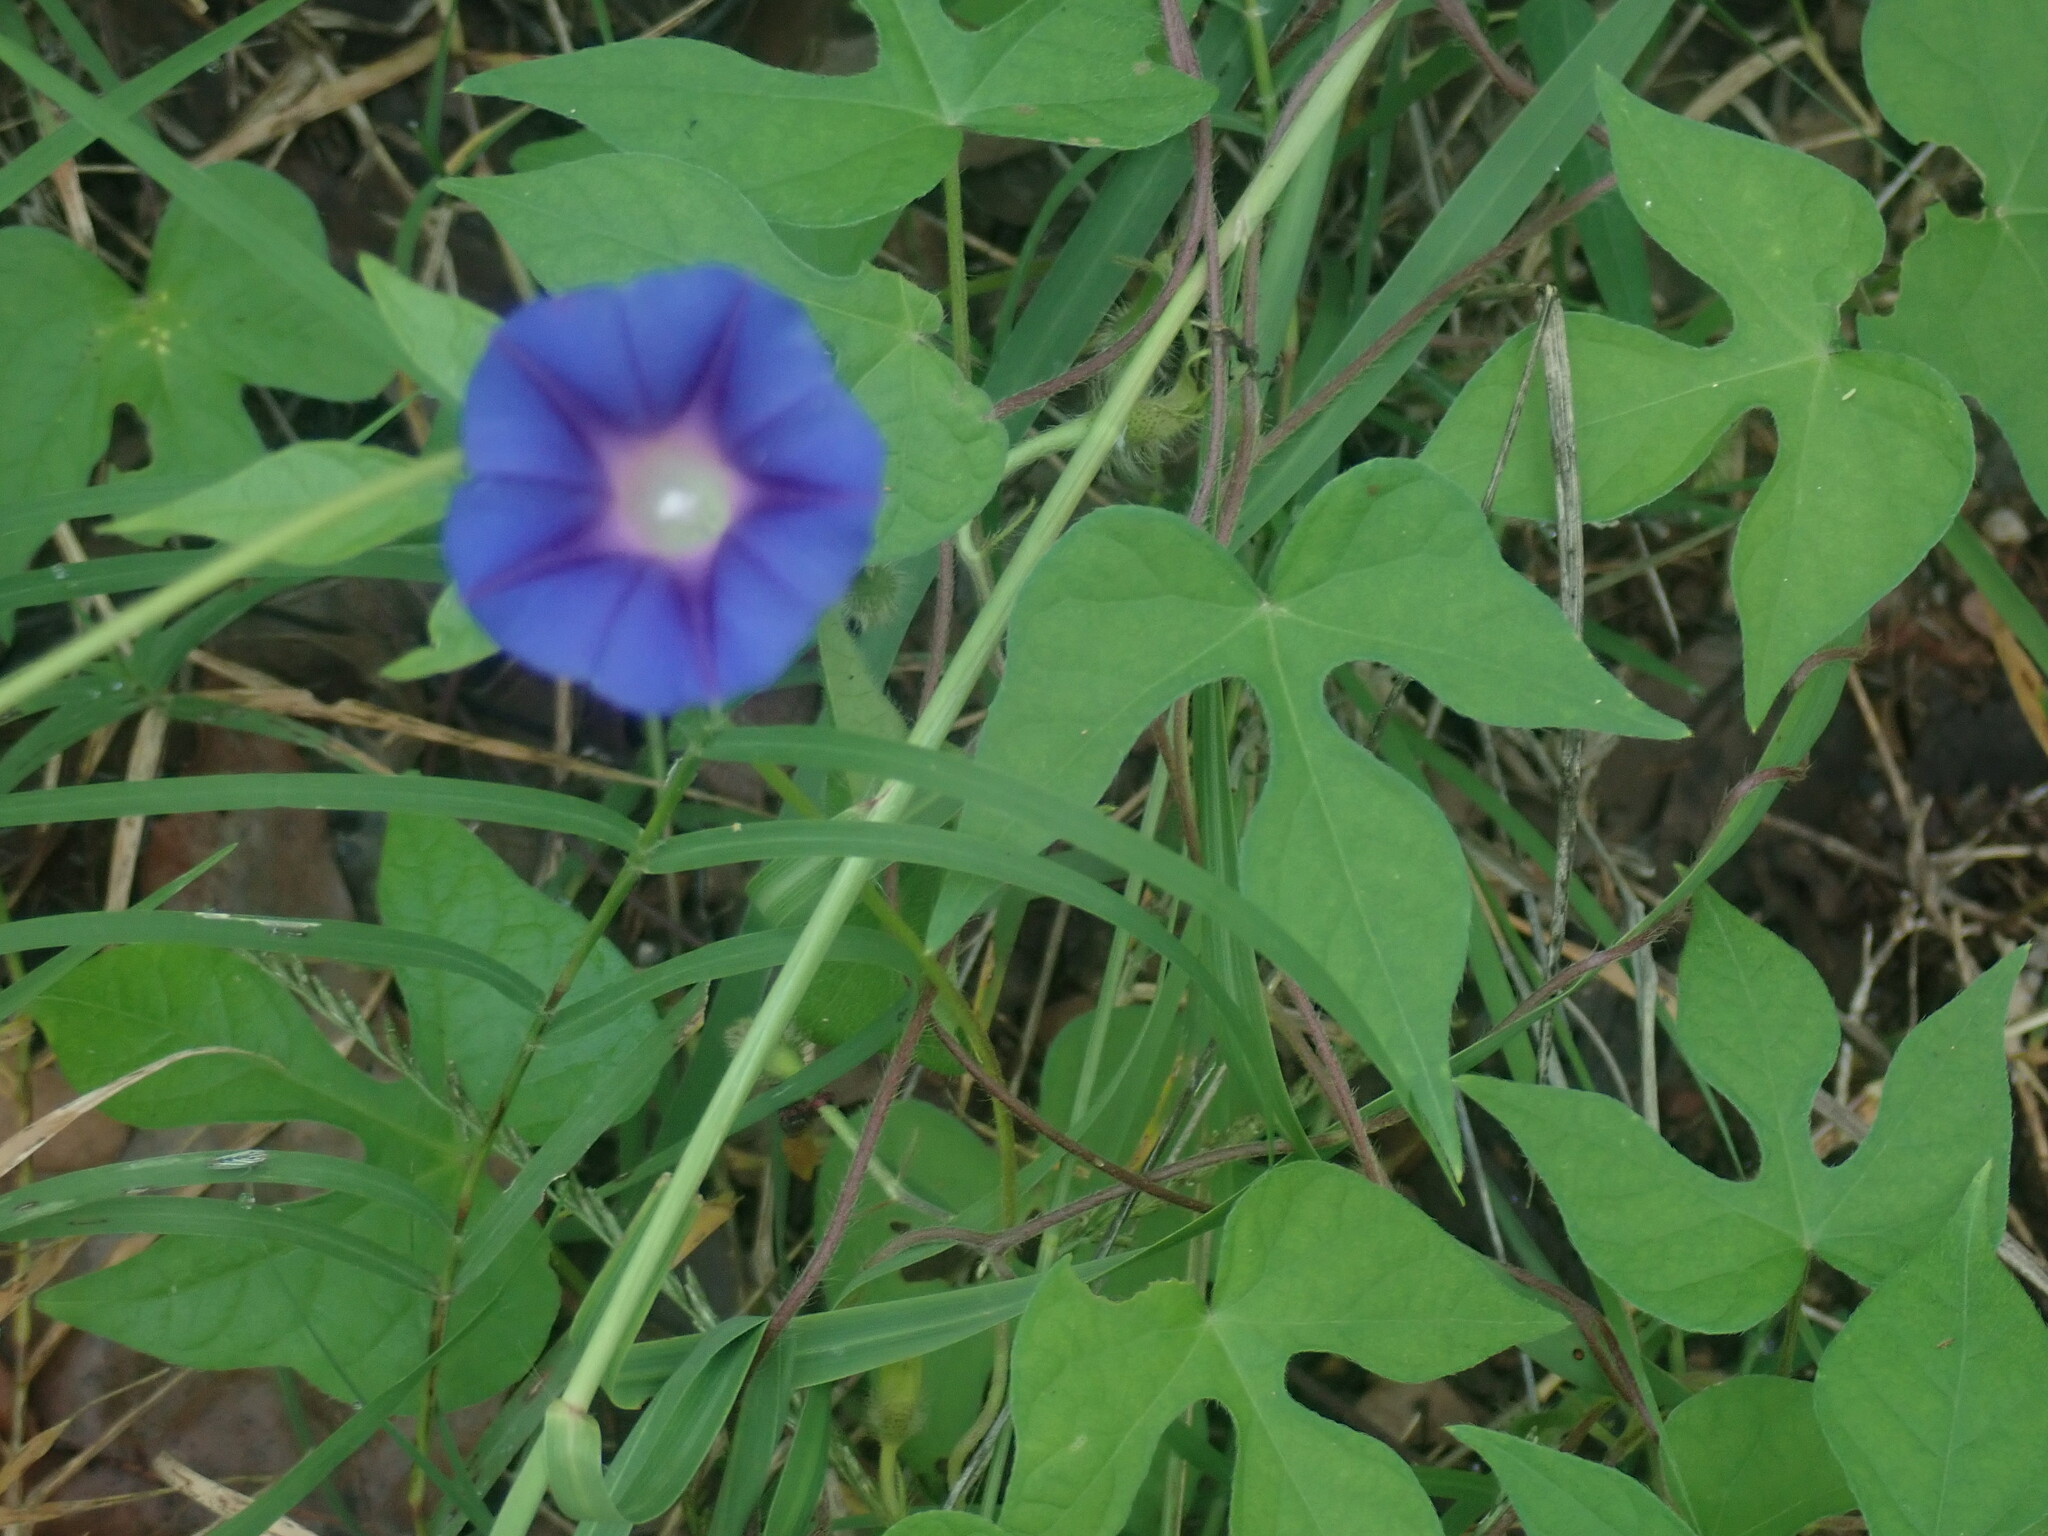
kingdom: Plantae
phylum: Tracheophyta
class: Magnoliopsida
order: Solanales
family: Convolvulaceae
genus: Ipomoea
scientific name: Ipomoea hederacea
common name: Ivy-leaved morning-glory
